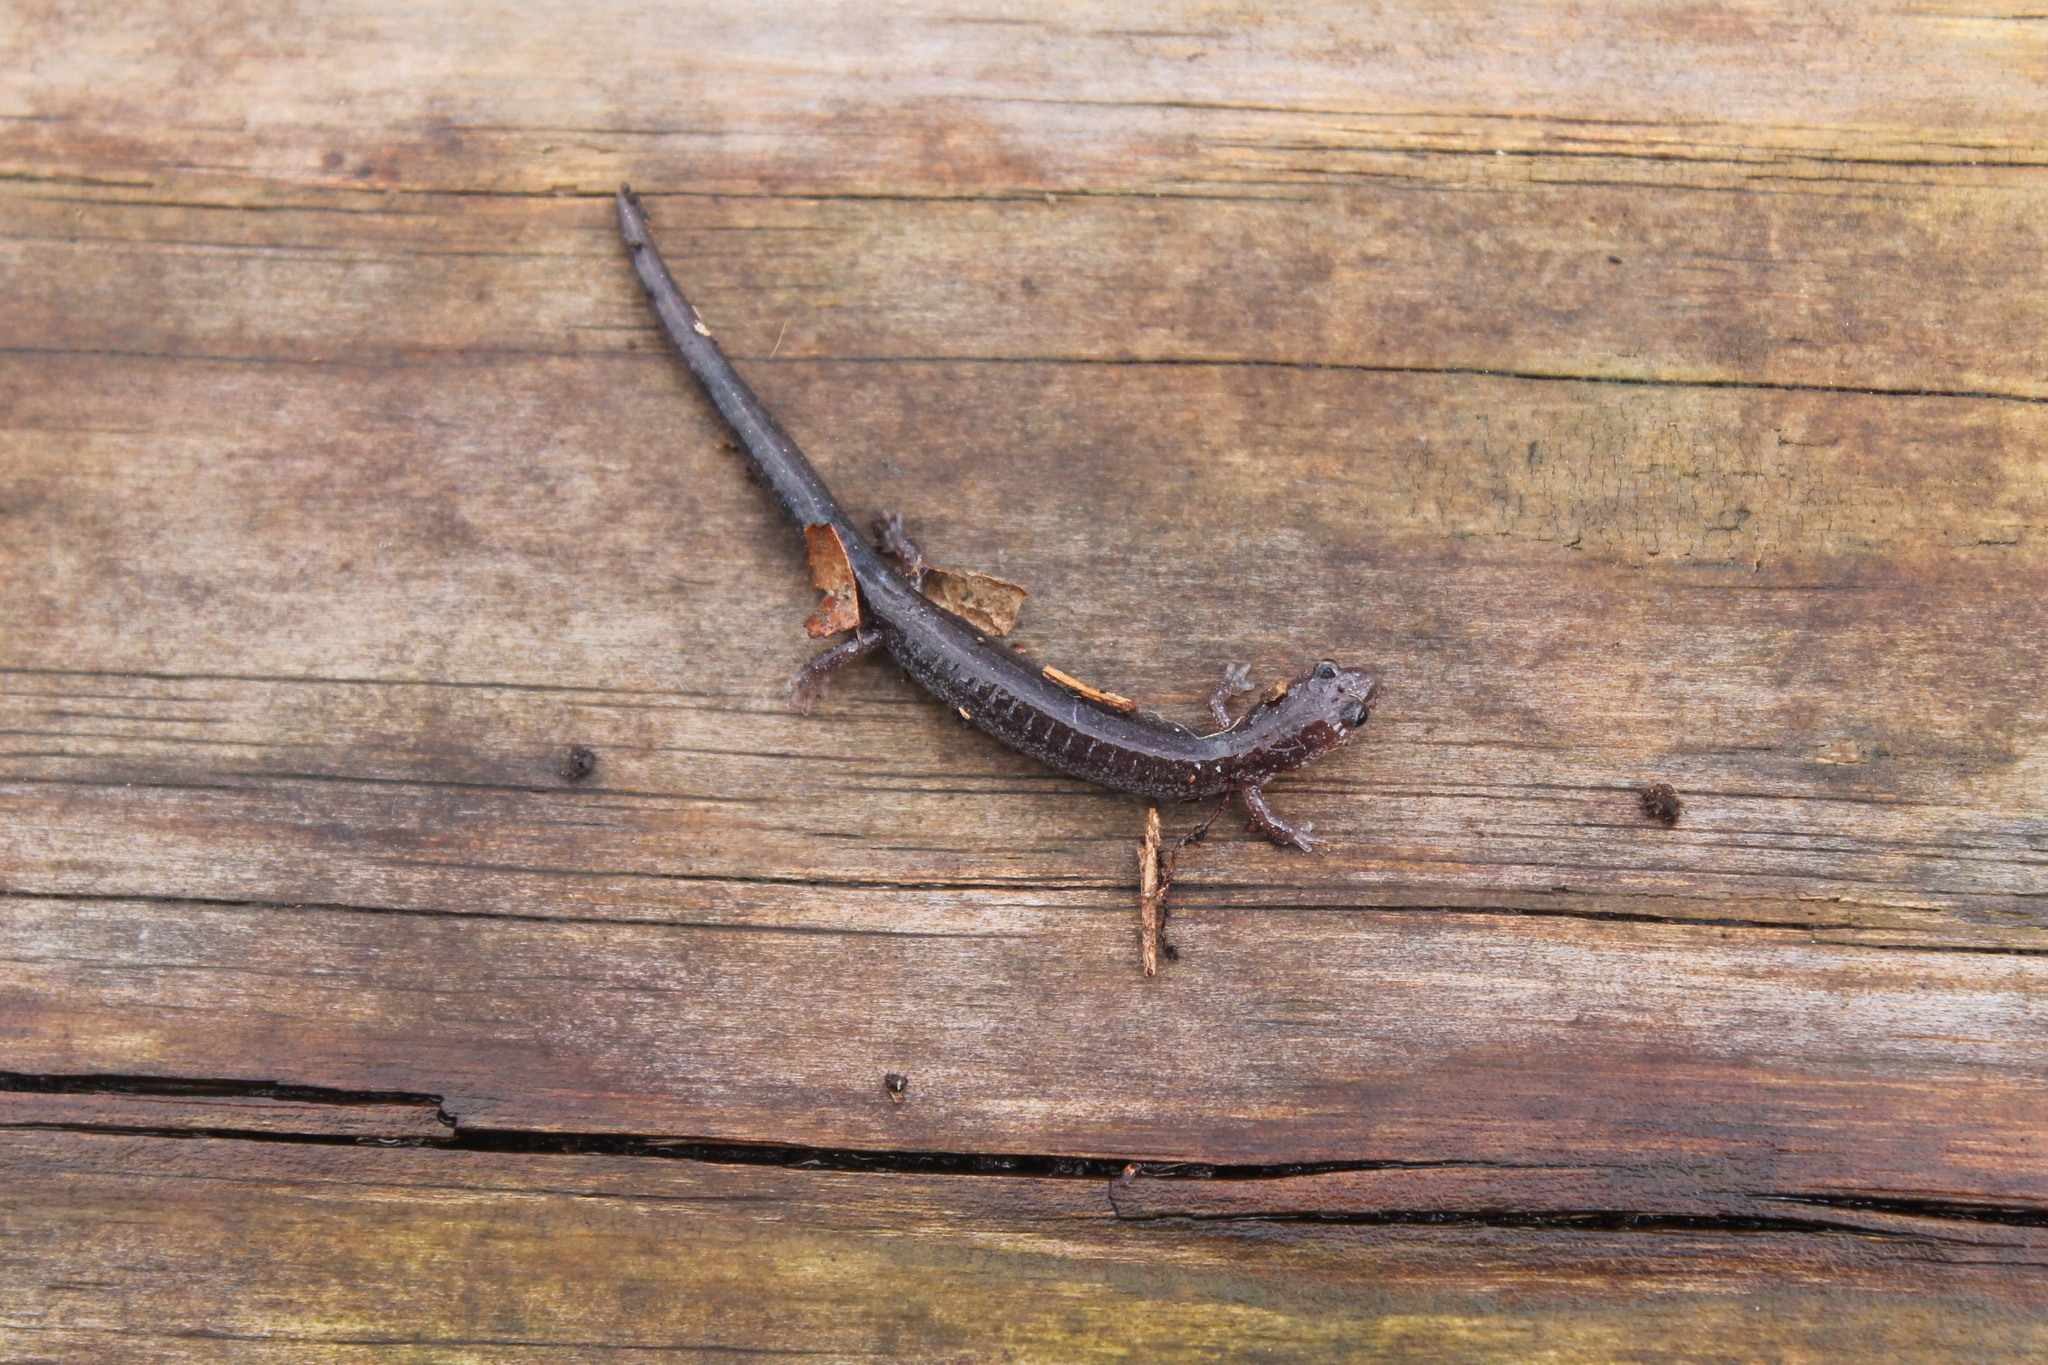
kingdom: Animalia
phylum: Chordata
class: Amphibia
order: Caudata
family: Plethodontidae
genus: Plethodon
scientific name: Plethodon cinereus
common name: Redback salamander
